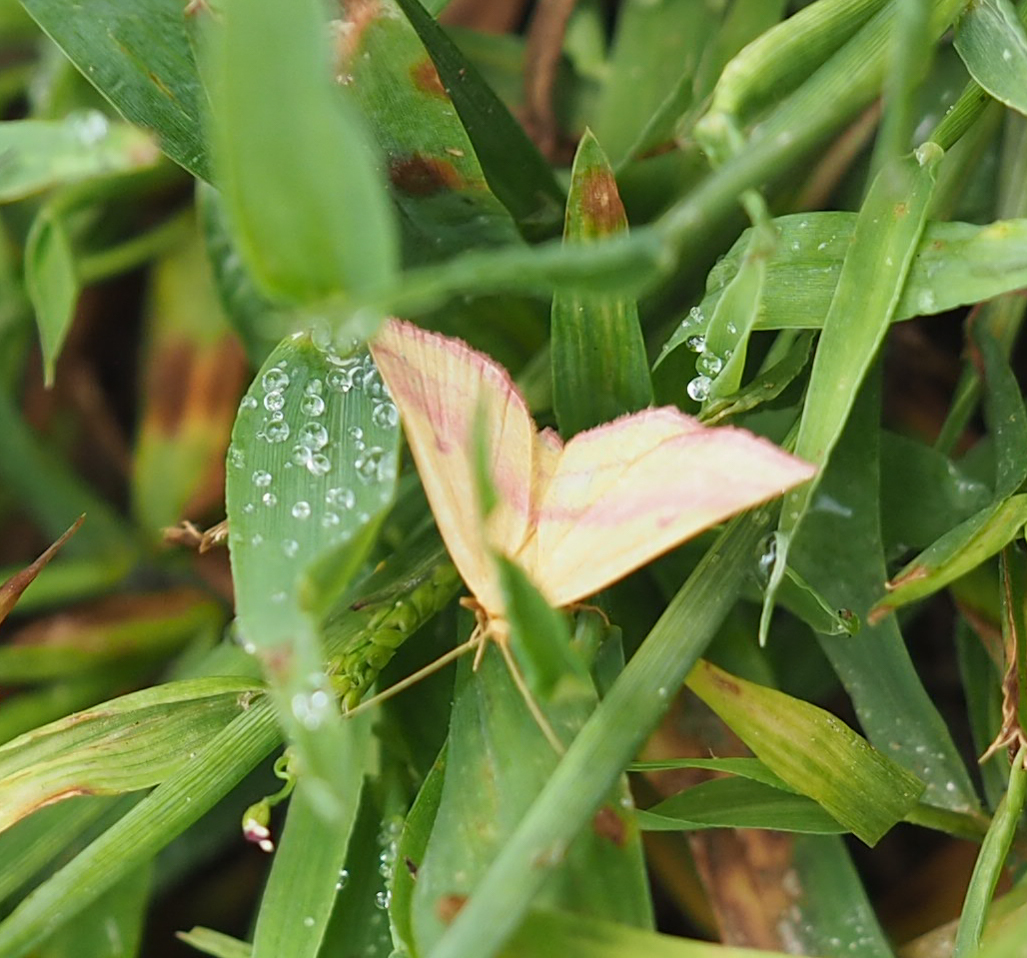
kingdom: Animalia
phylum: Arthropoda
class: Insecta
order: Lepidoptera
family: Geometridae
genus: Haematopis
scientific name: Haematopis grataria
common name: Chickweed geometer
